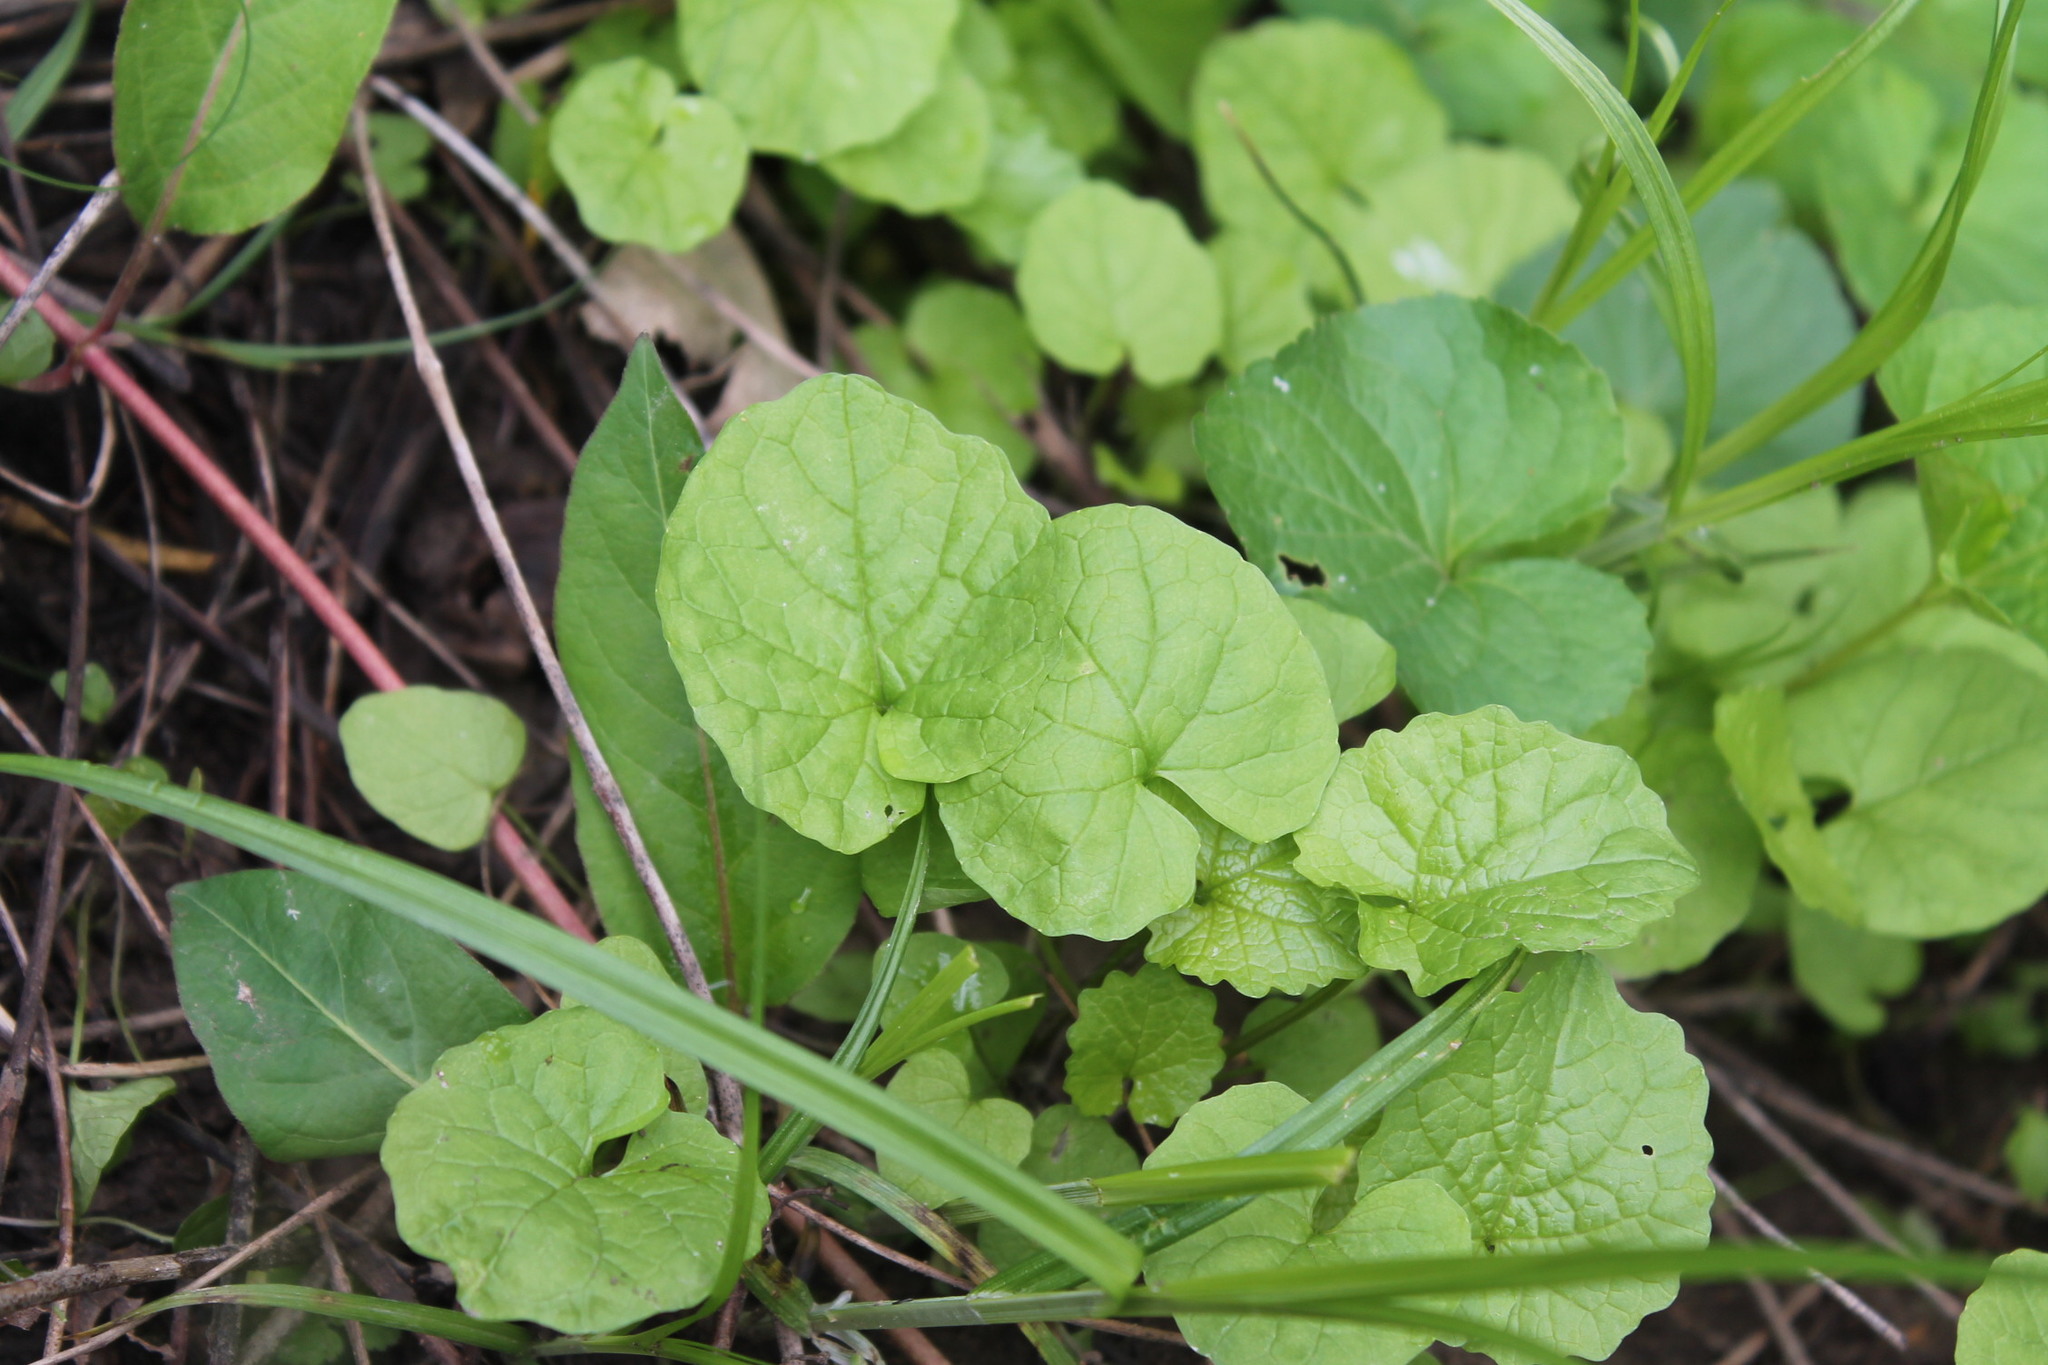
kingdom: Plantae
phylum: Tracheophyta
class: Magnoliopsida
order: Brassicales
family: Brassicaceae
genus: Alliaria
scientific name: Alliaria petiolata
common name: Garlic mustard
